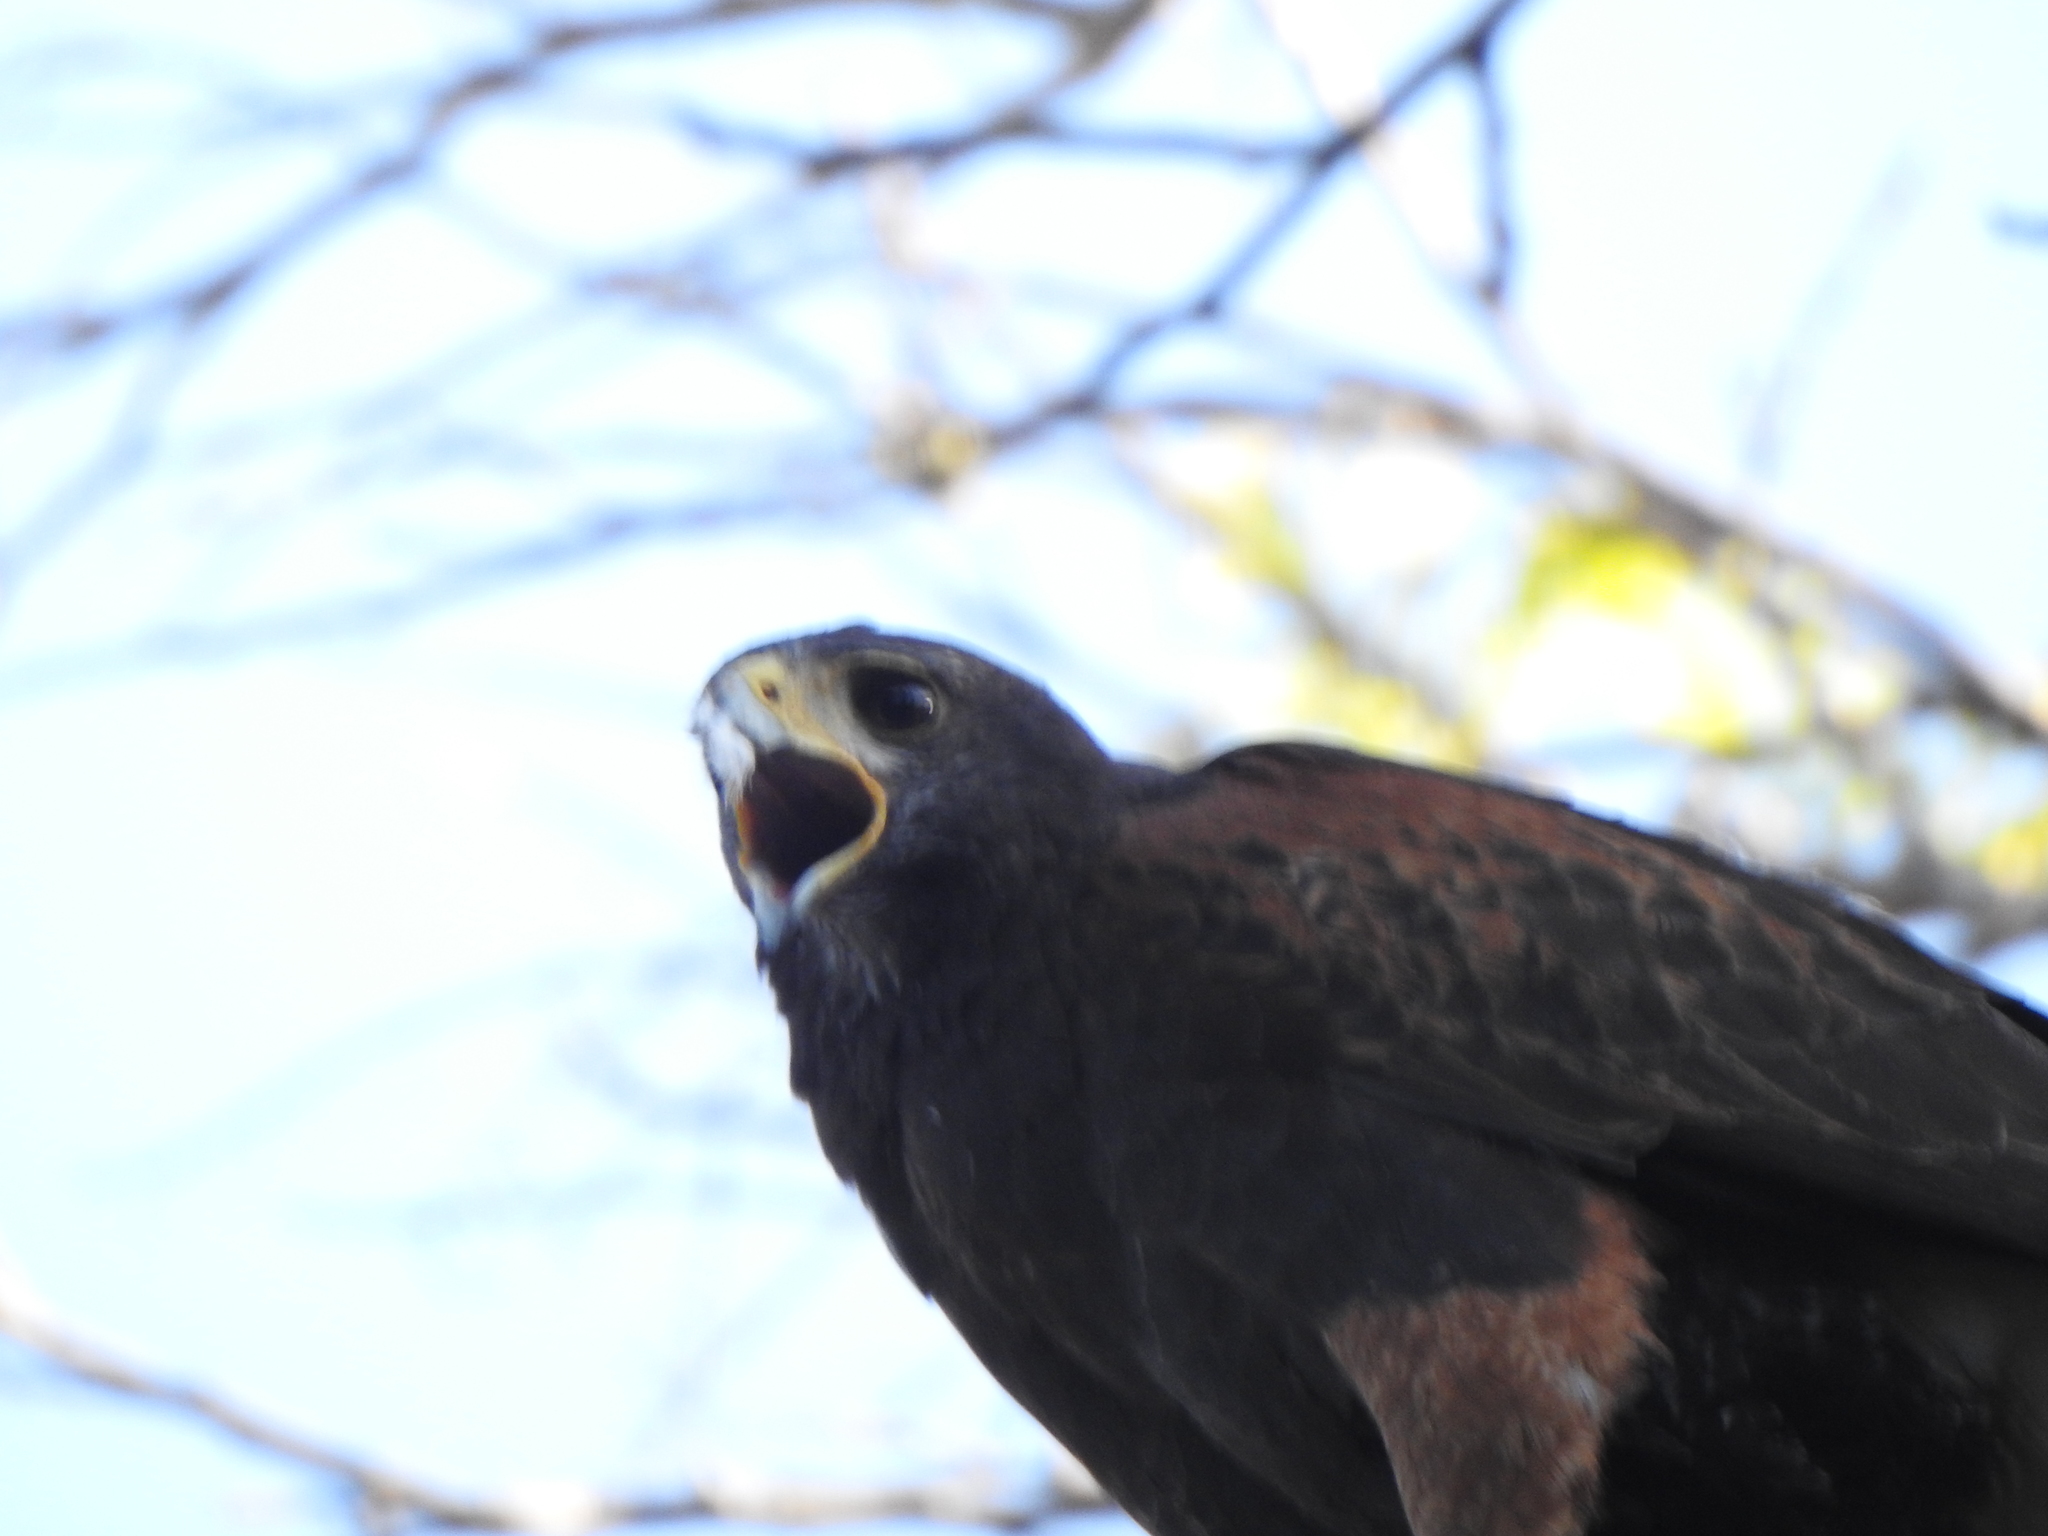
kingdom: Animalia
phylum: Chordata
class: Aves
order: Accipitriformes
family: Accipitridae
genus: Parabuteo
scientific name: Parabuteo unicinctus
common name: Harris's hawk
